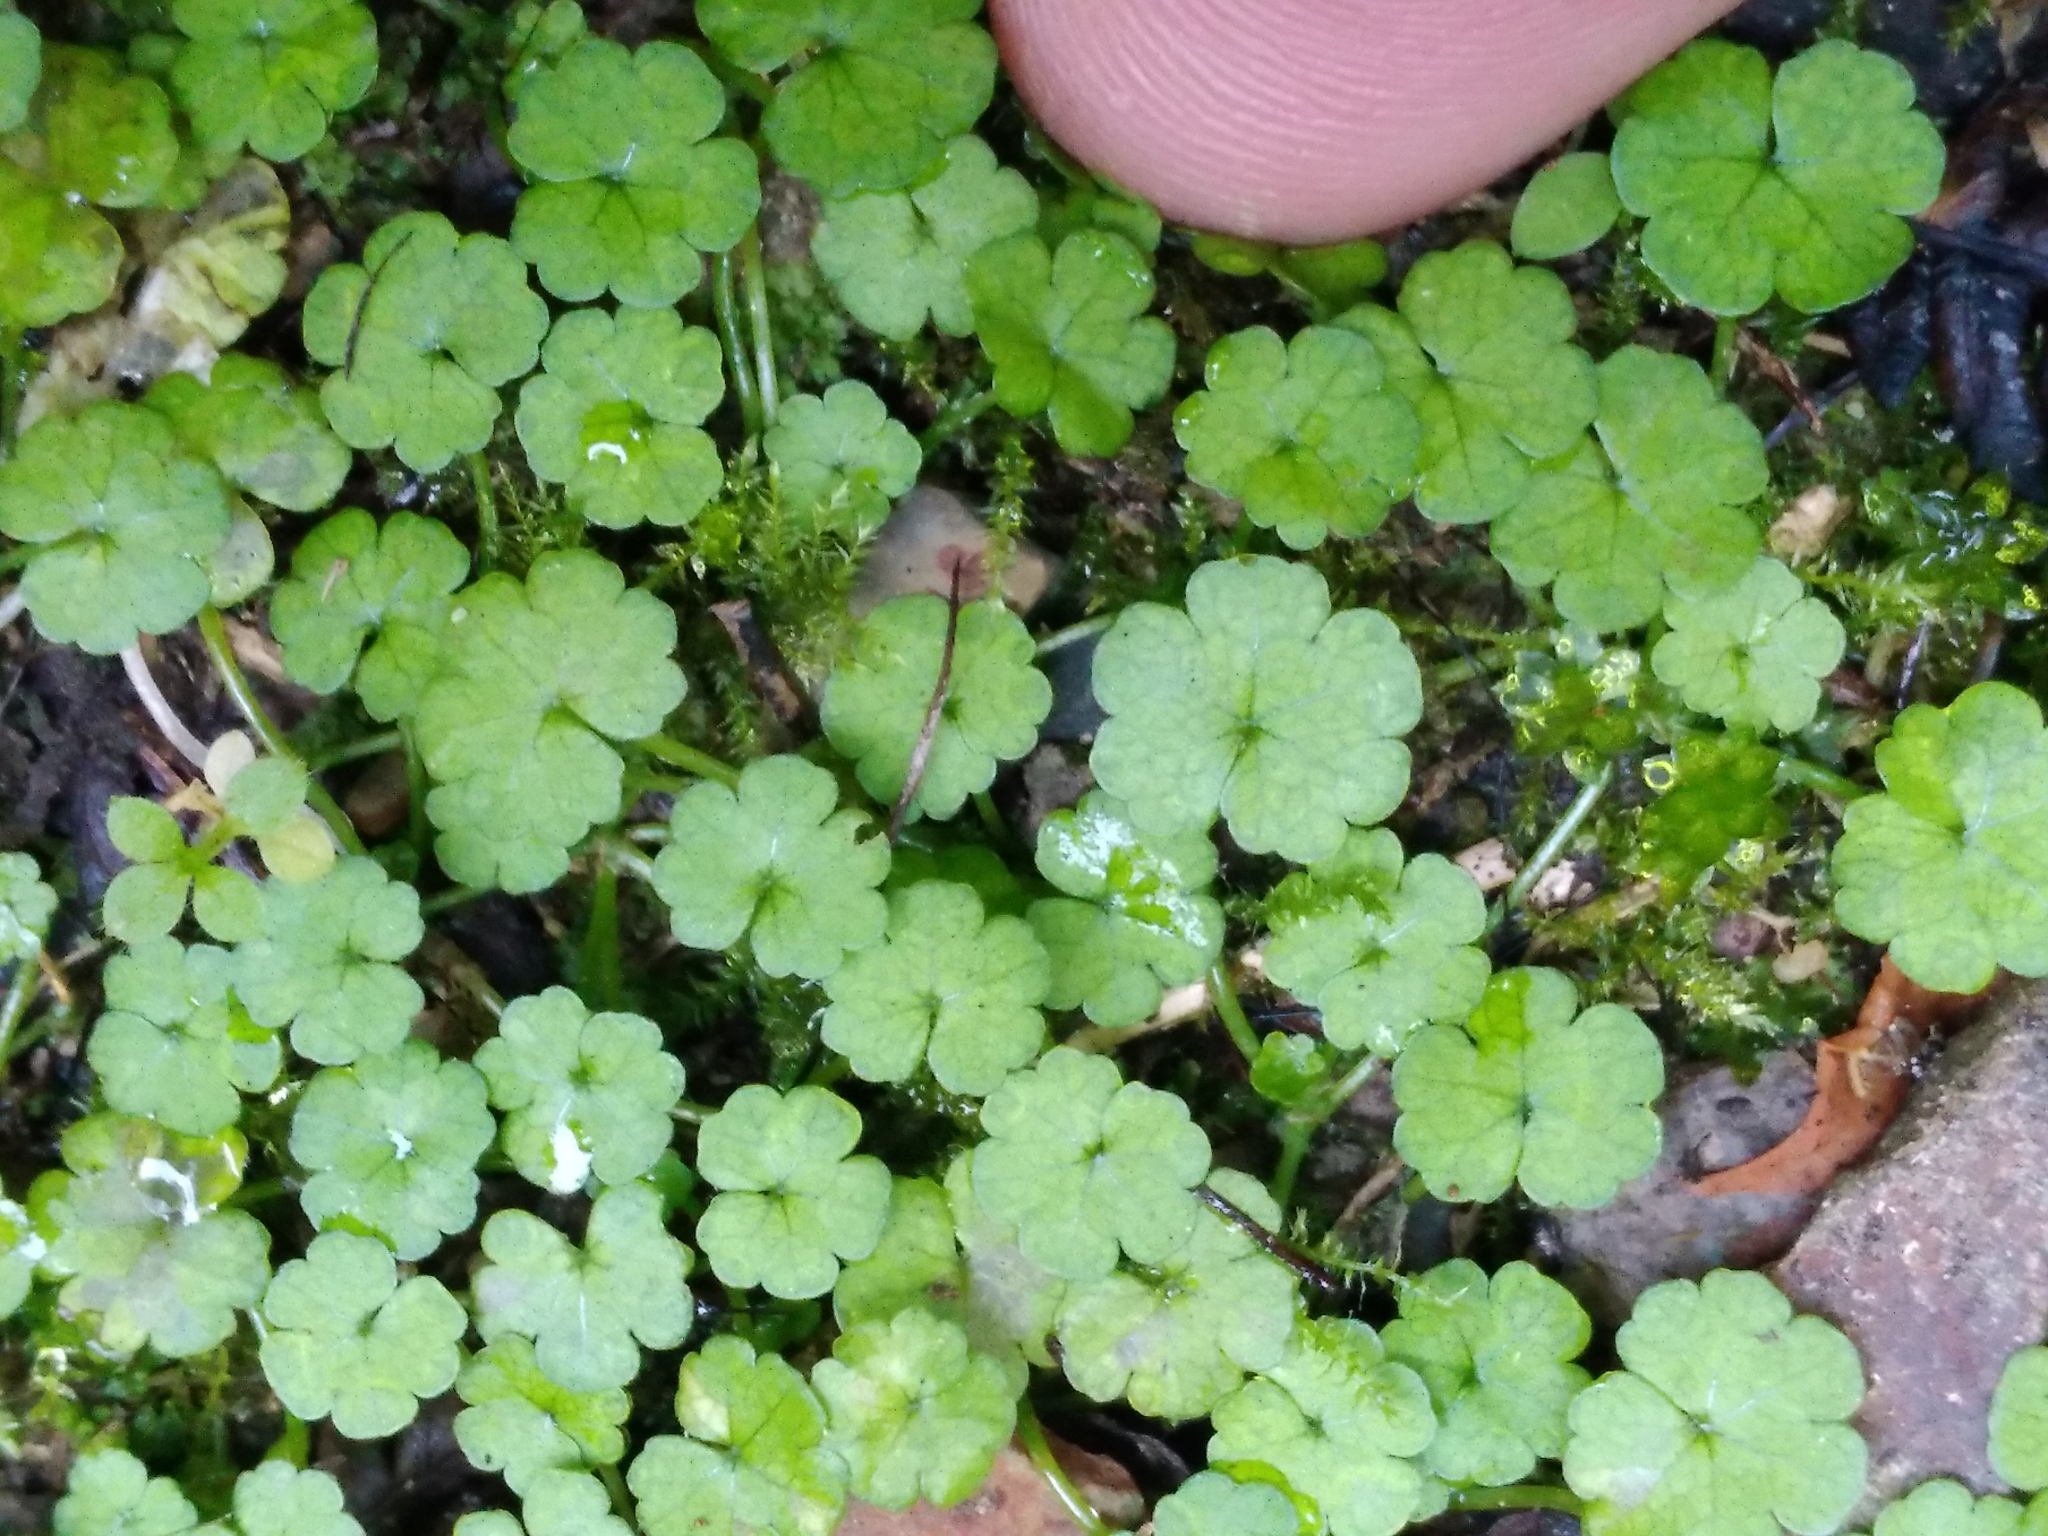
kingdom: Plantae
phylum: Tracheophyta
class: Magnoliopsida
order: Apiales
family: Araliaceae
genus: Hydrocotyle
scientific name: Hydrocotyle heteromeria
